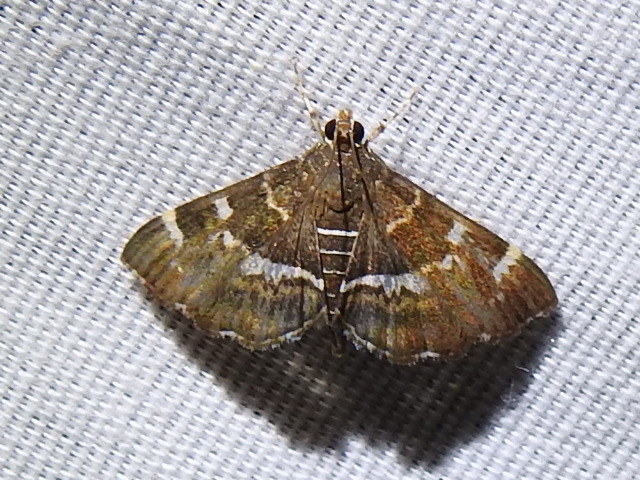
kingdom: Animalia
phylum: Arthropoda
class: Insecta
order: Lepidoptera
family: Crambidae
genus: Hymenia
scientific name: Hymenia perspectalis
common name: Spotted beet webworm
